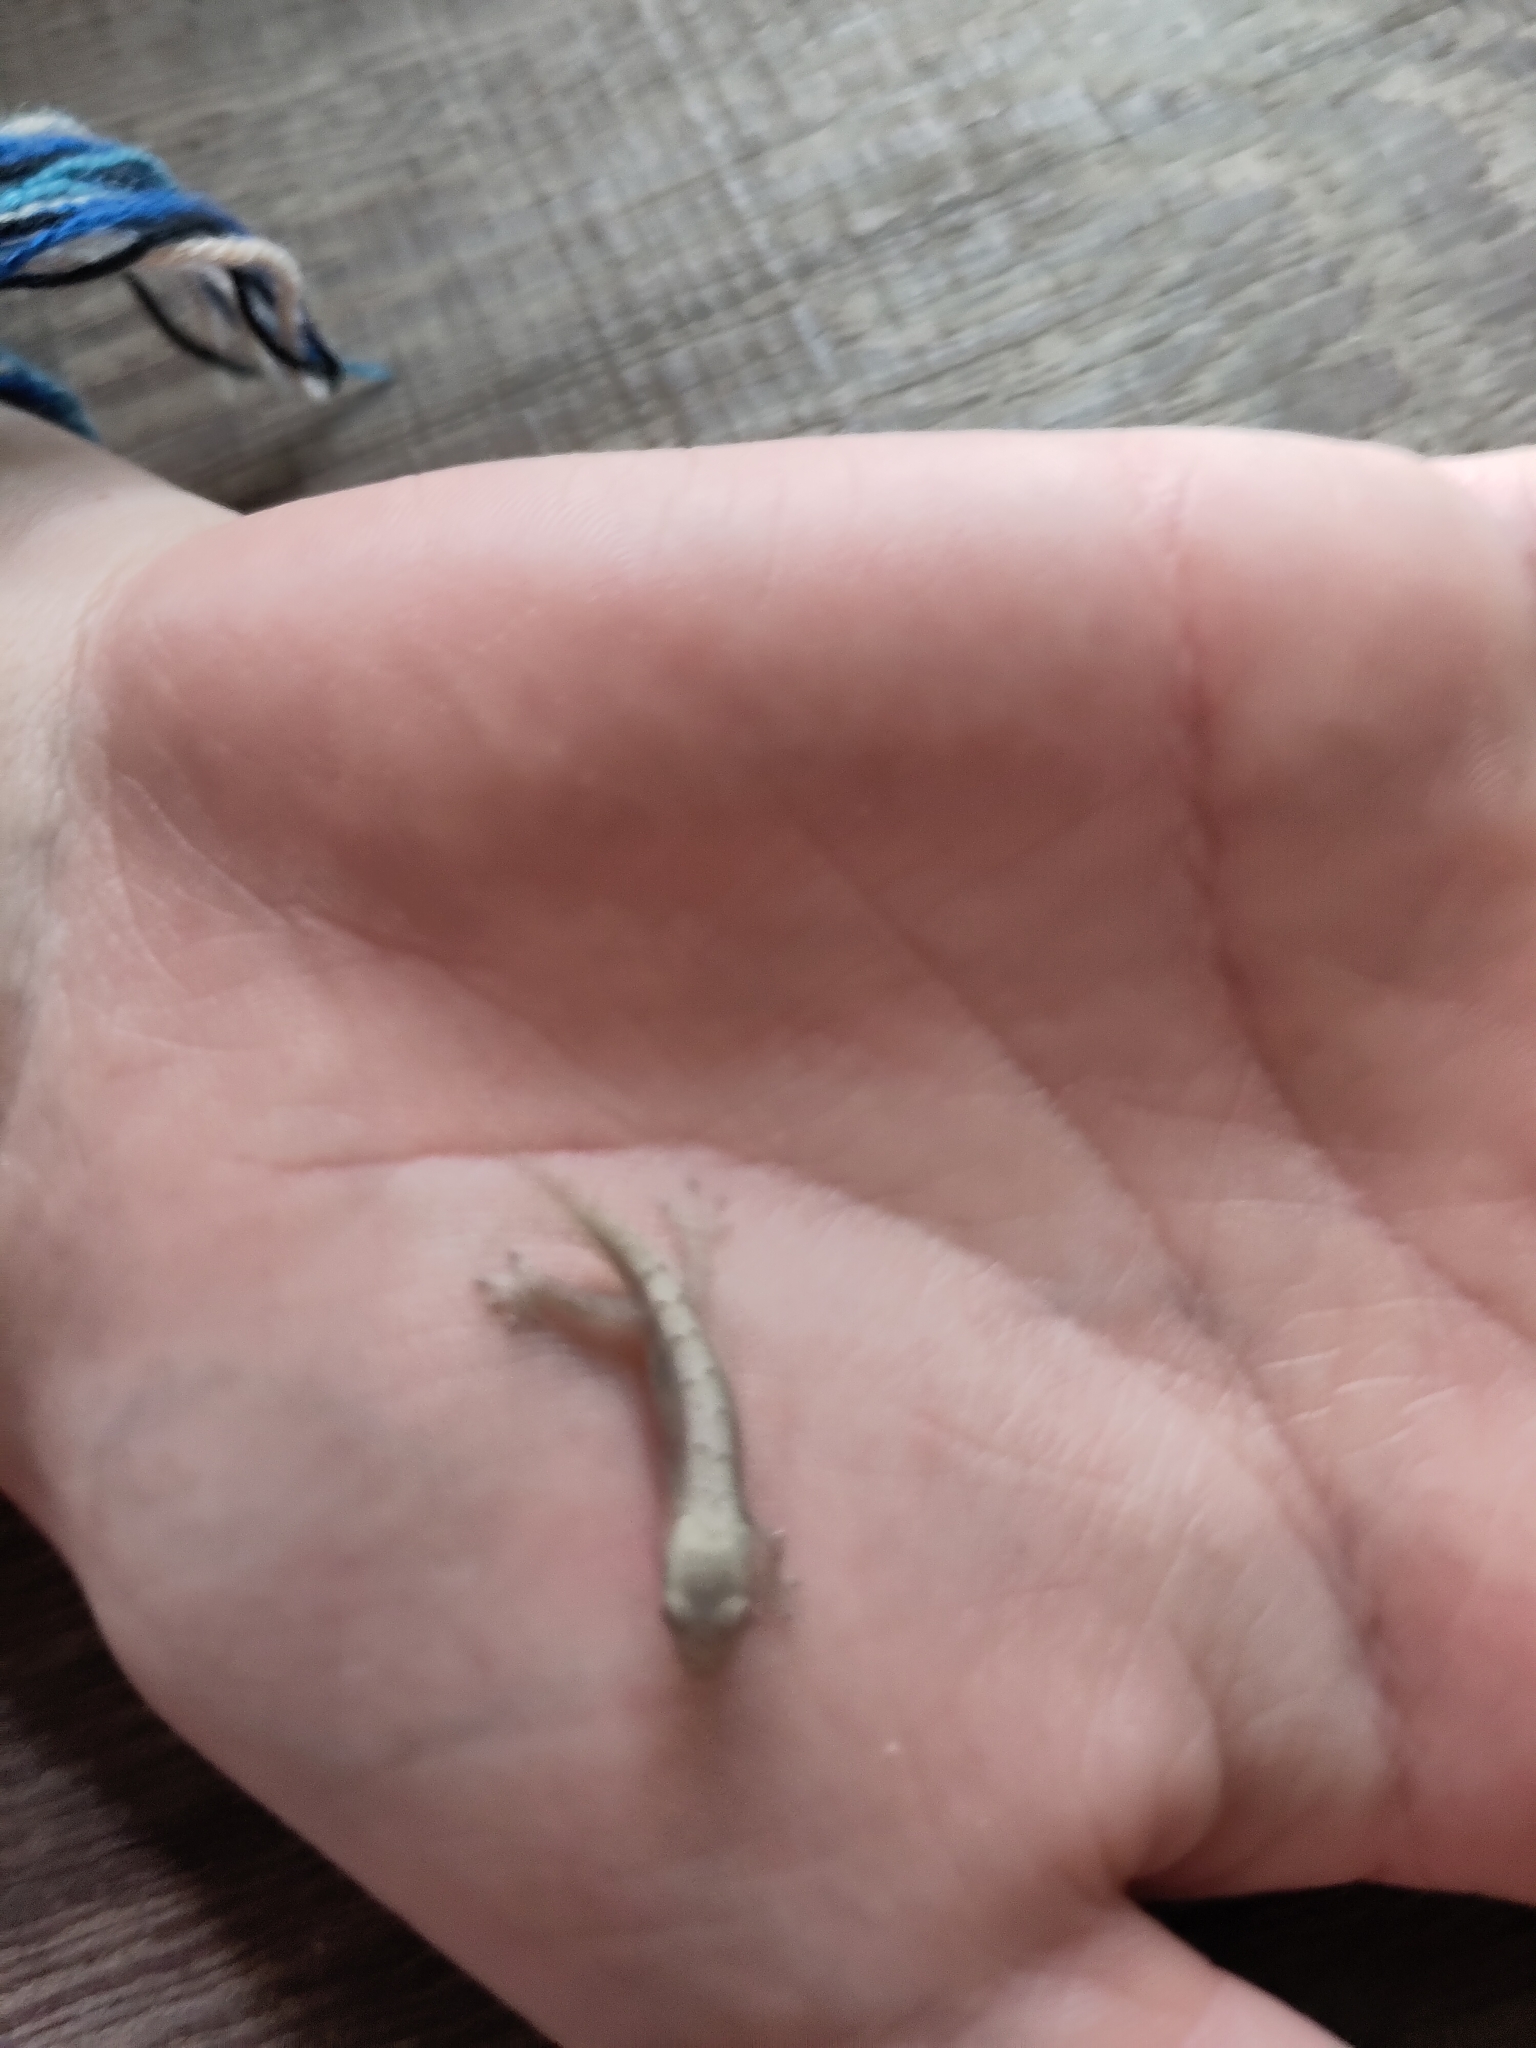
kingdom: Animalia
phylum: Chordata
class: Squamata
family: Gekkonidae
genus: Lepidodactylus
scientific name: Lepidodactylus lugubris
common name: Mourning gecko
